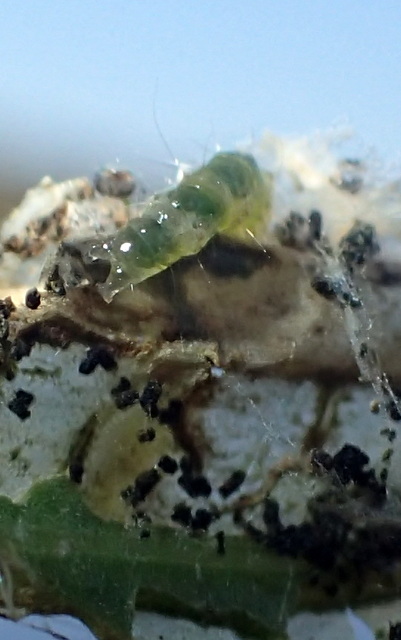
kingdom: Animalia
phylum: Arthropoda
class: Insecta
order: Lepidoptera
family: Crambidae
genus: Herpetogramma
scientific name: Herpetogramma bipunctalis
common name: Southern beet webworm
